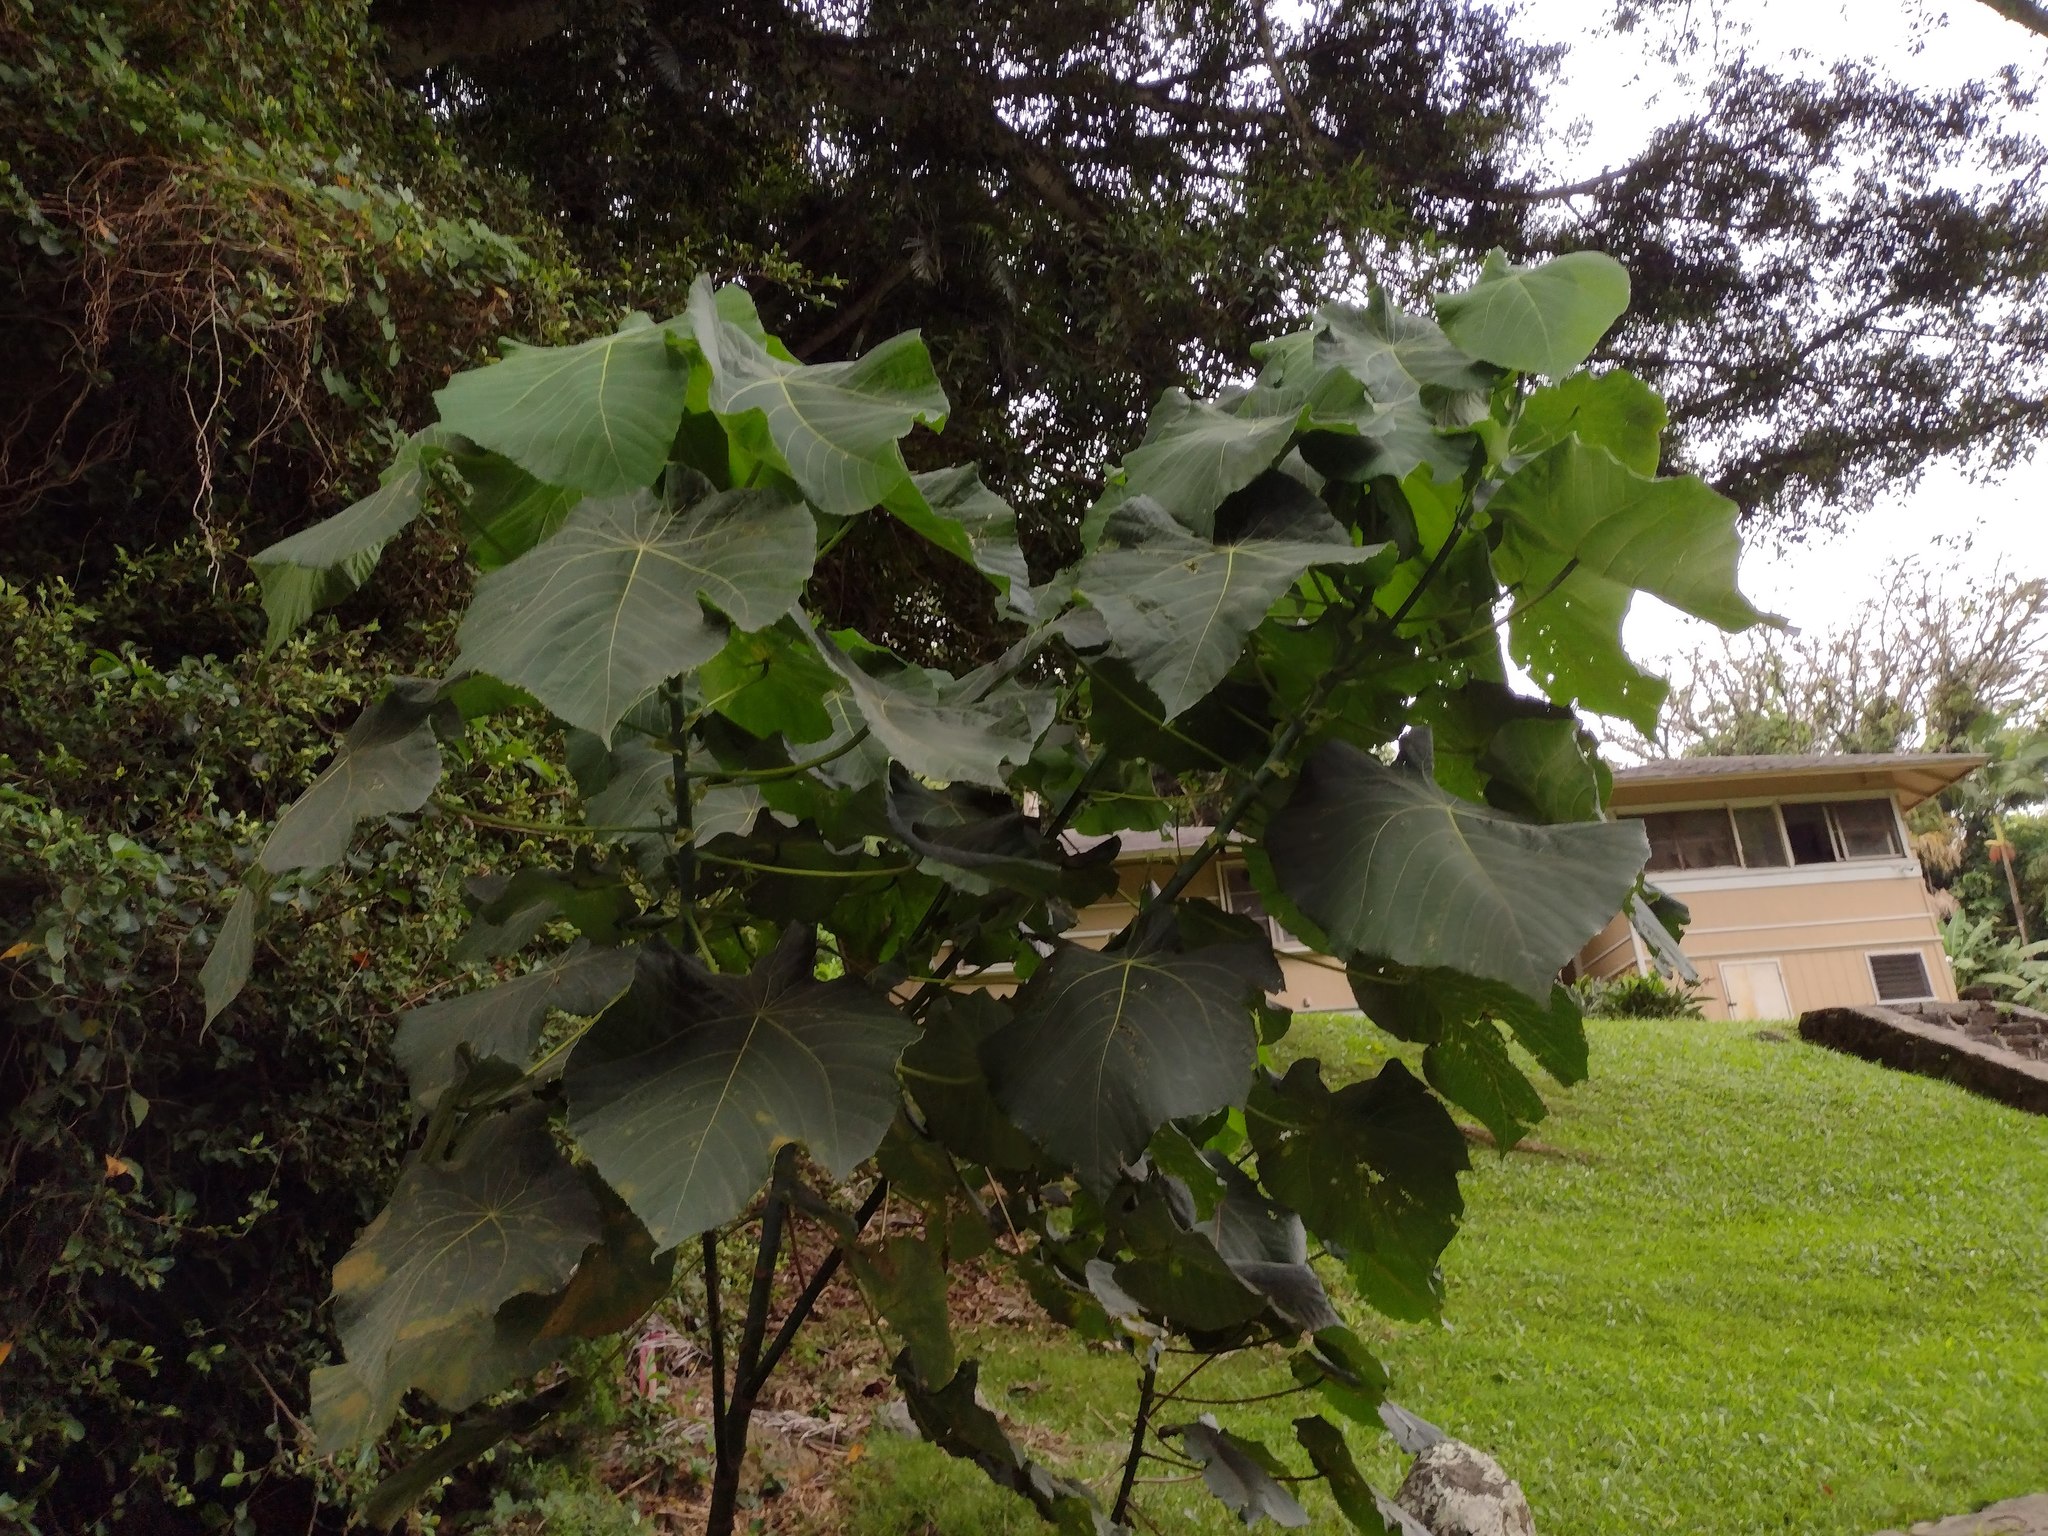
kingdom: Plantae
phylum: Tracheophyta
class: Magnoliopsida
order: Malpighiales
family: Euphorbiaceae
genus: Macaranga
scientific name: Macaranga tanarius
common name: Parasol leaf tree
